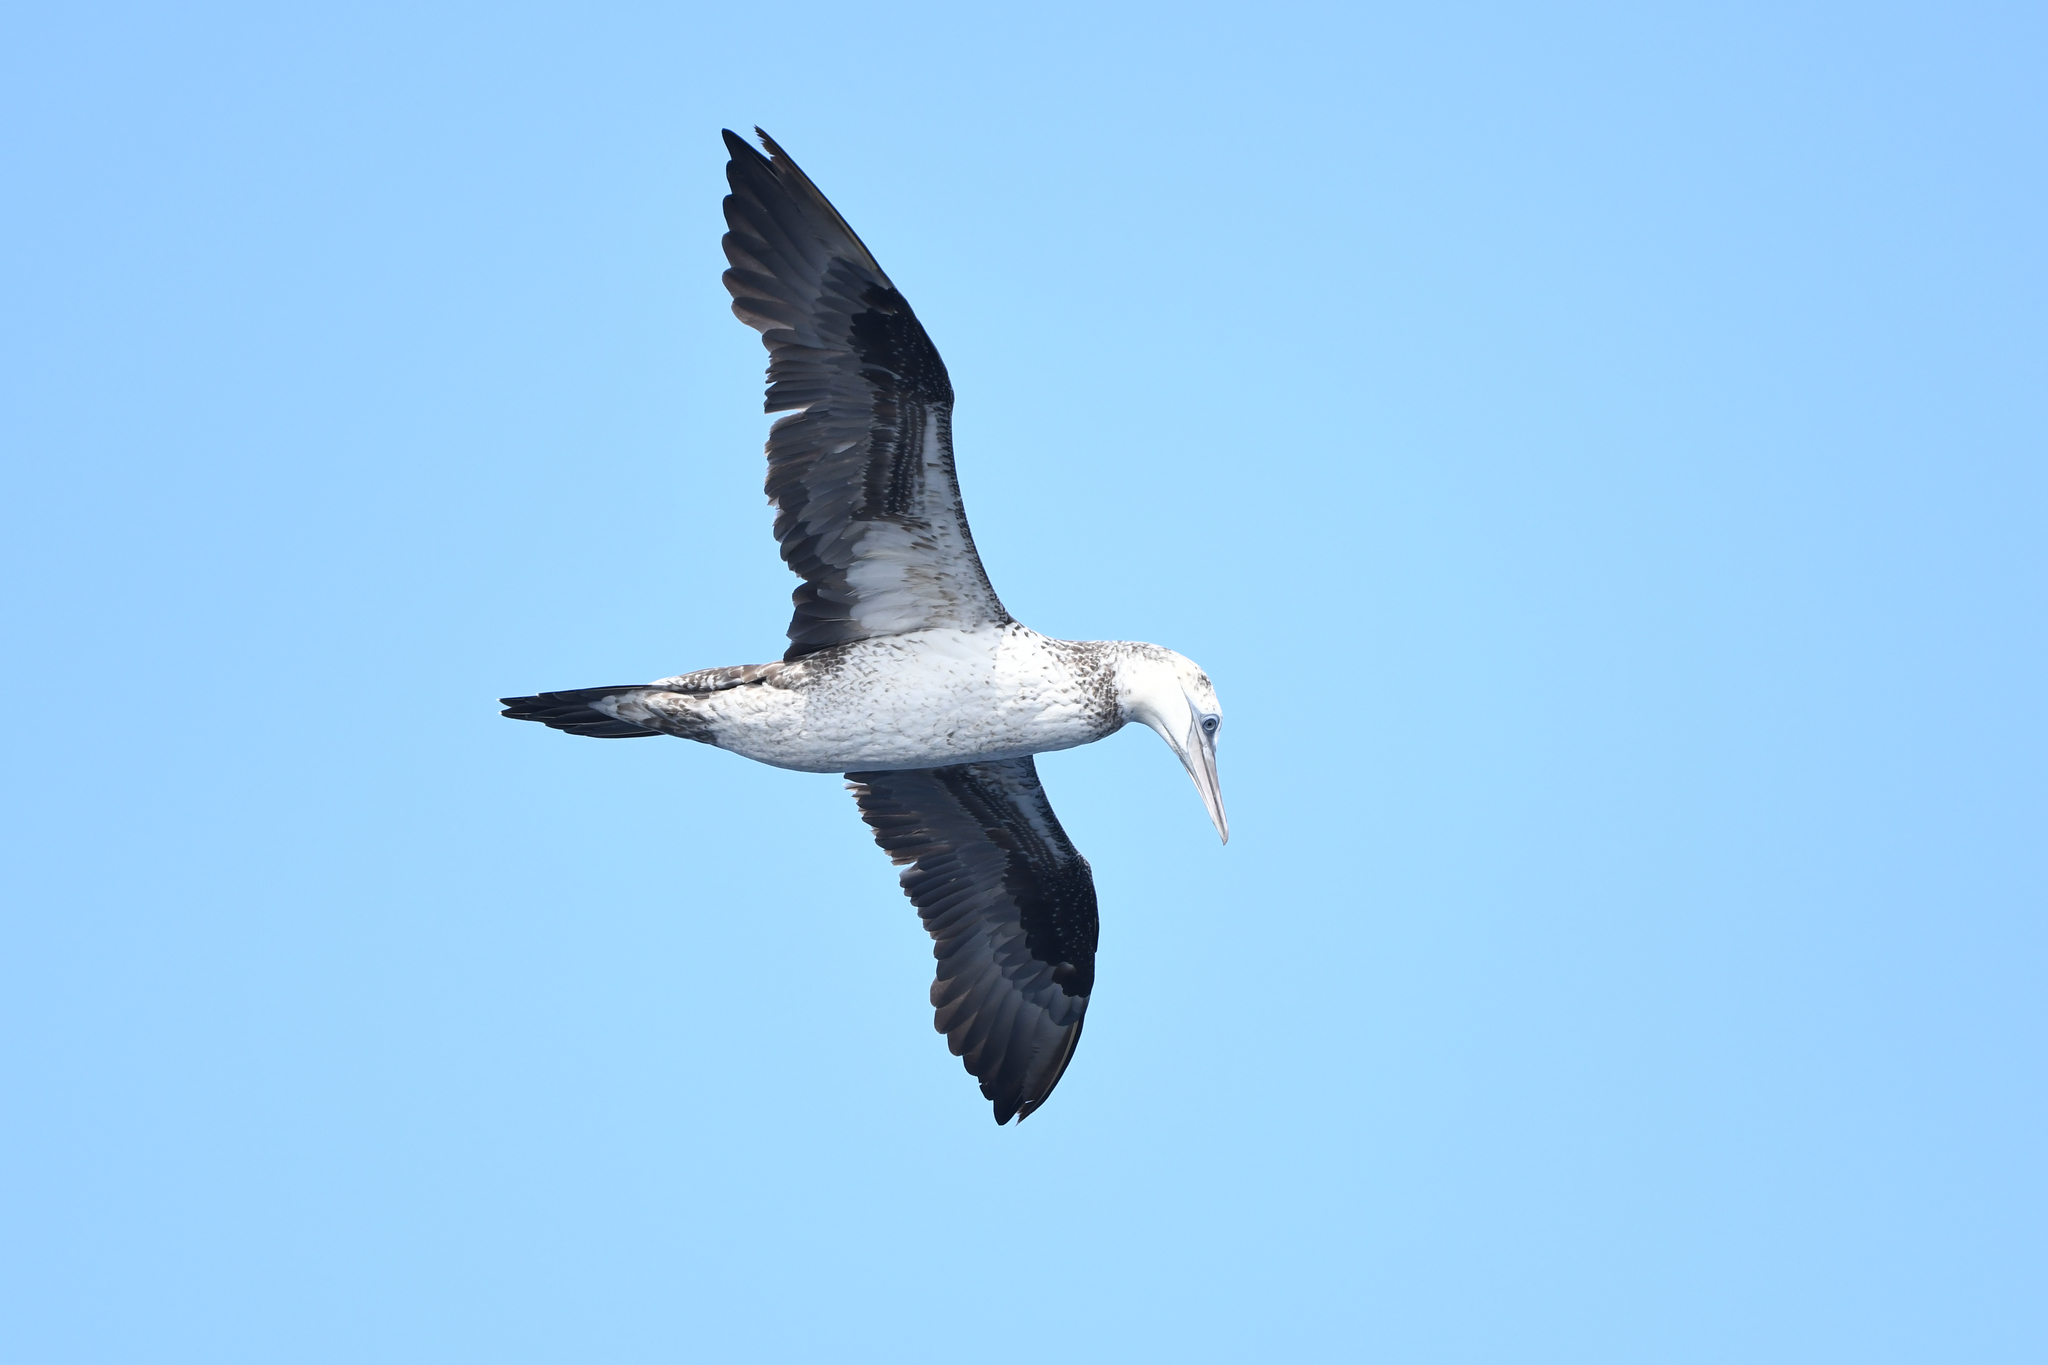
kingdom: Animalia
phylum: Chordata
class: Aves
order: Suliformes
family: Sulidae
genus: Morus
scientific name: Morus bassanus
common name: Northern gannet
